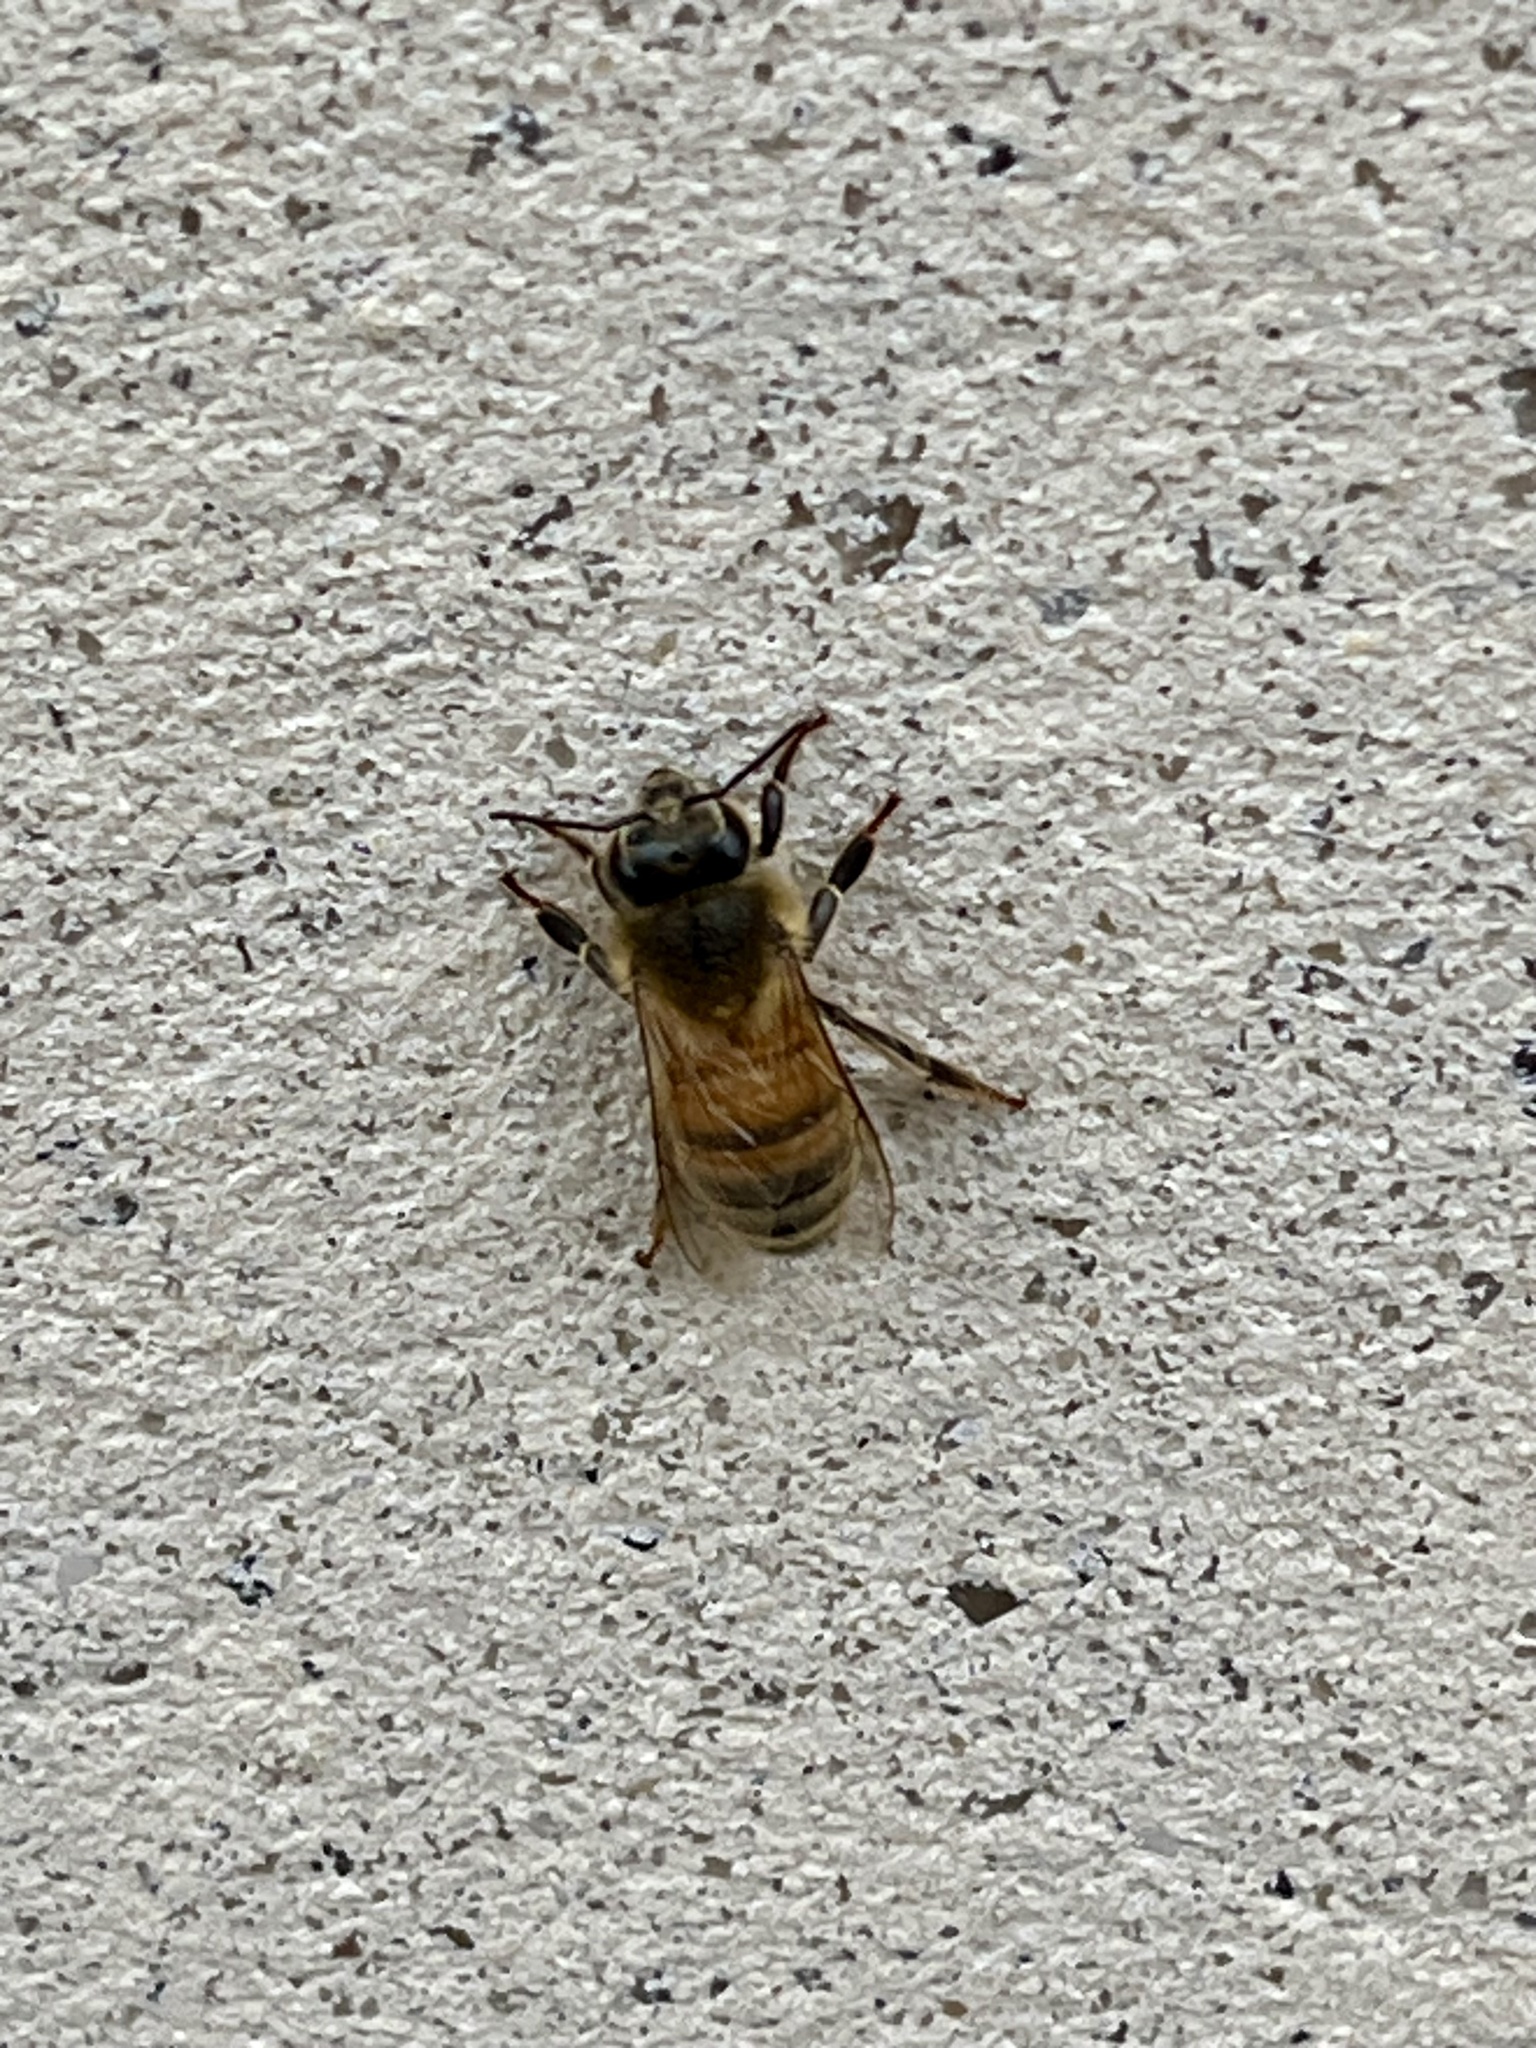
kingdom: Animalia
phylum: Arthropoda
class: Insecta
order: Hymenoptera
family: Apidae
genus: Apis
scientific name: Apis mellifera
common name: Honey bee
